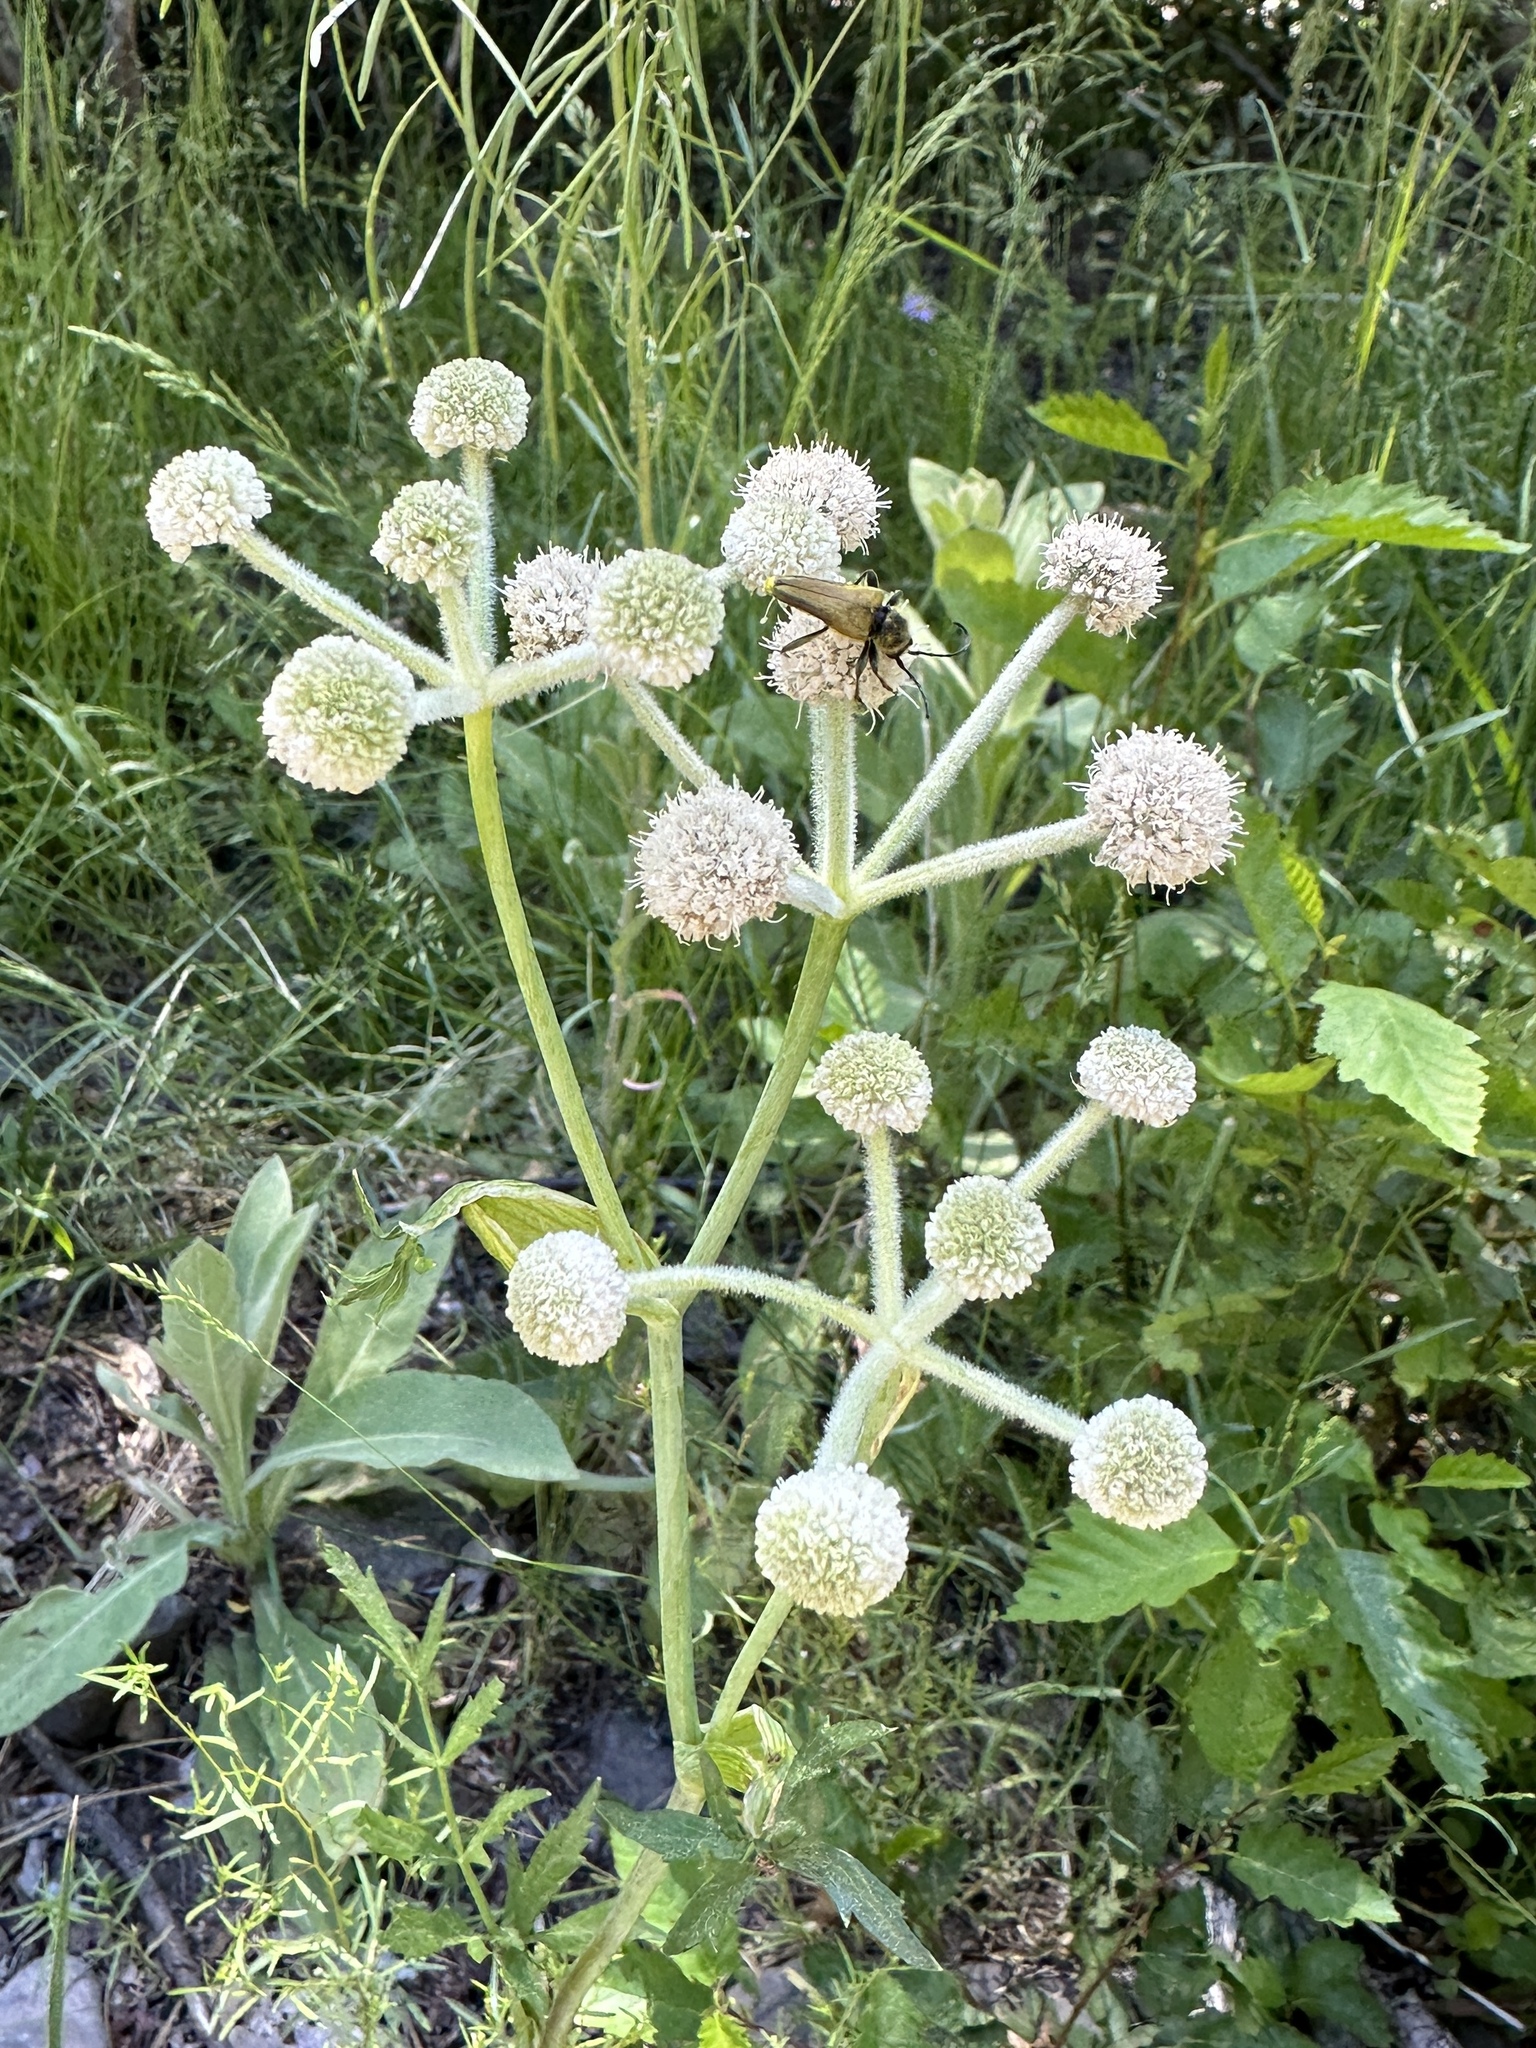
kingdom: Plantae
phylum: Tracheophyta
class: Magnoliopsida
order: Apiales
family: Apiaceae
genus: Angelica
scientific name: Angelica capitellata
